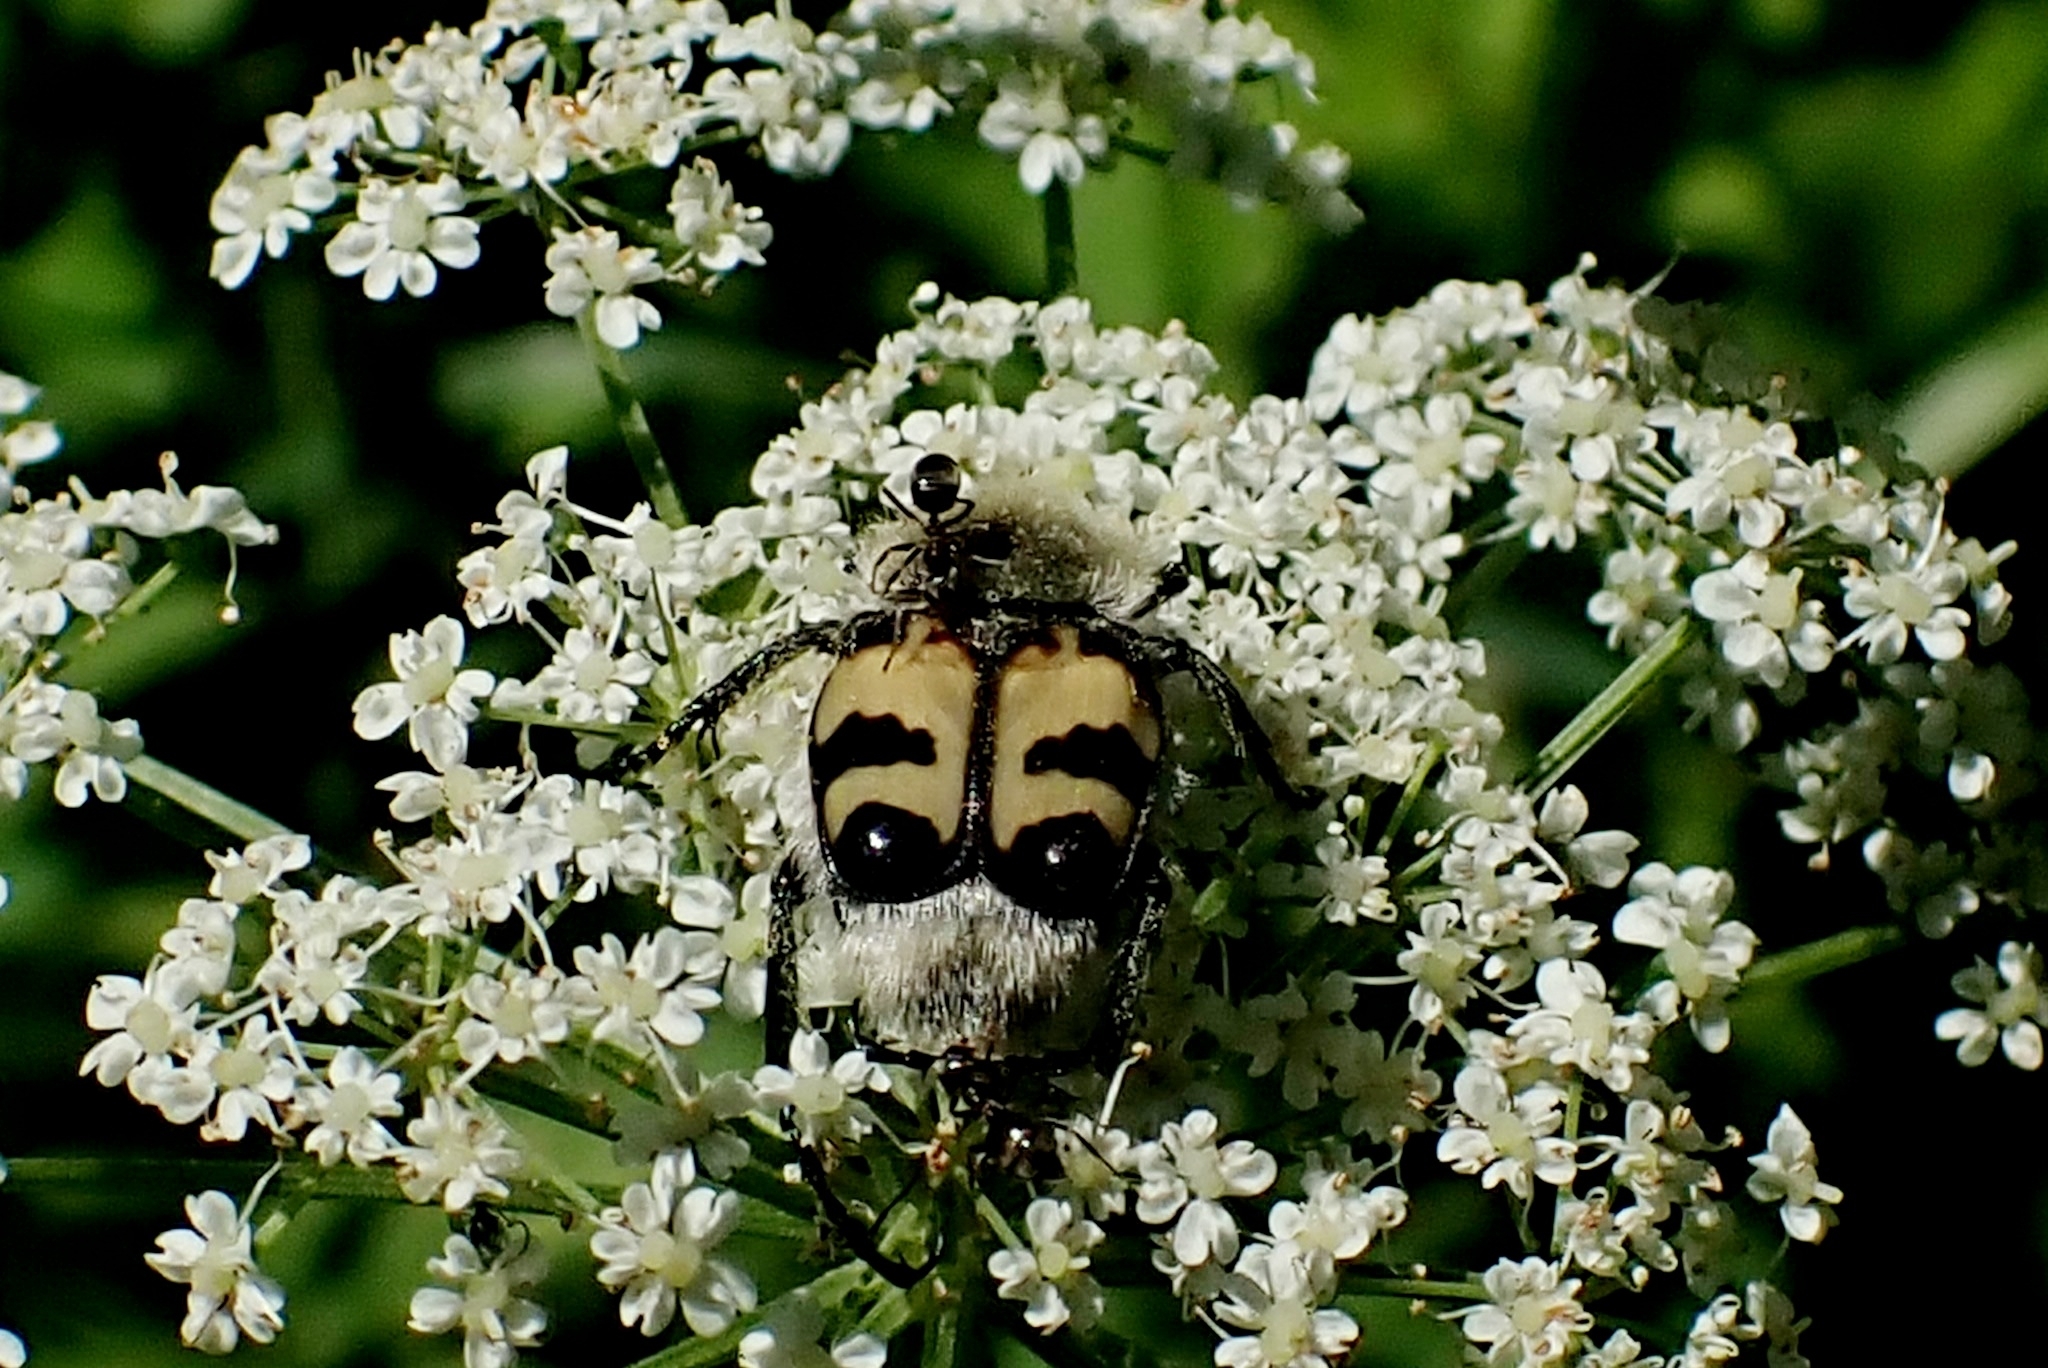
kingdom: Animalia
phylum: Arthropoda
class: Insecta
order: Coleoptera
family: Scarabaeidae
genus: Trichius
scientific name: Trichius fasciatus
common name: Bee beetle
